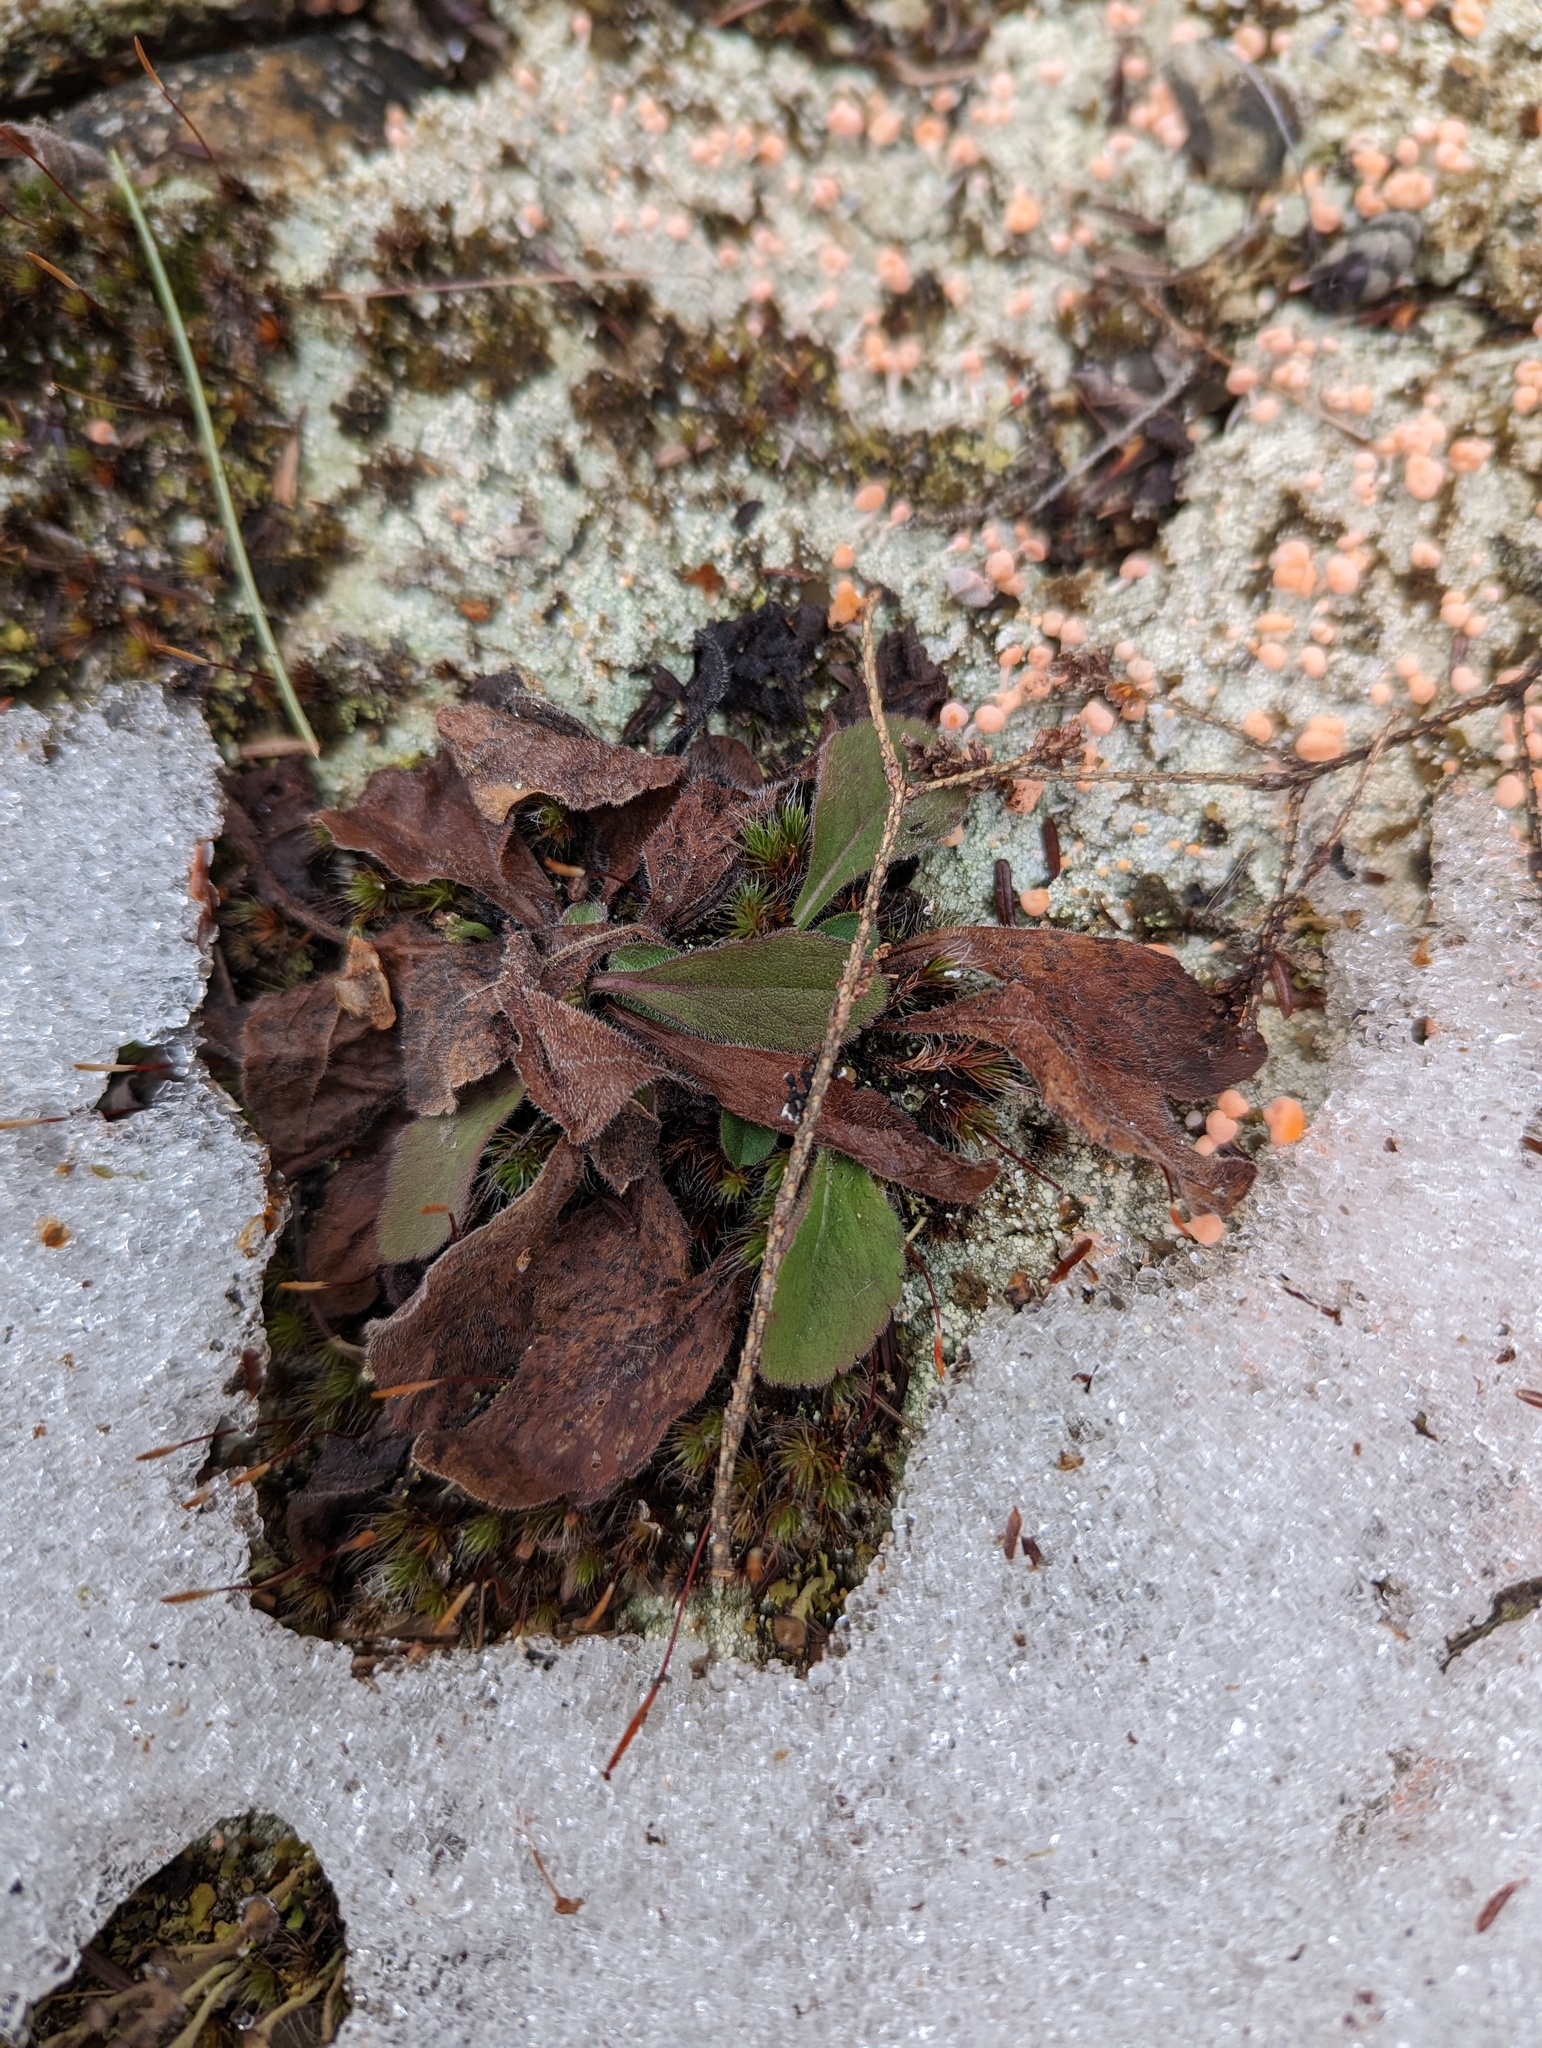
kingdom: Plantae
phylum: Tracheophyta
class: Magnoliopsida
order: Asterales
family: Asteraceae
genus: Pilosella
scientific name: Pilosella officinarum
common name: Mouse-ear hawkweed
